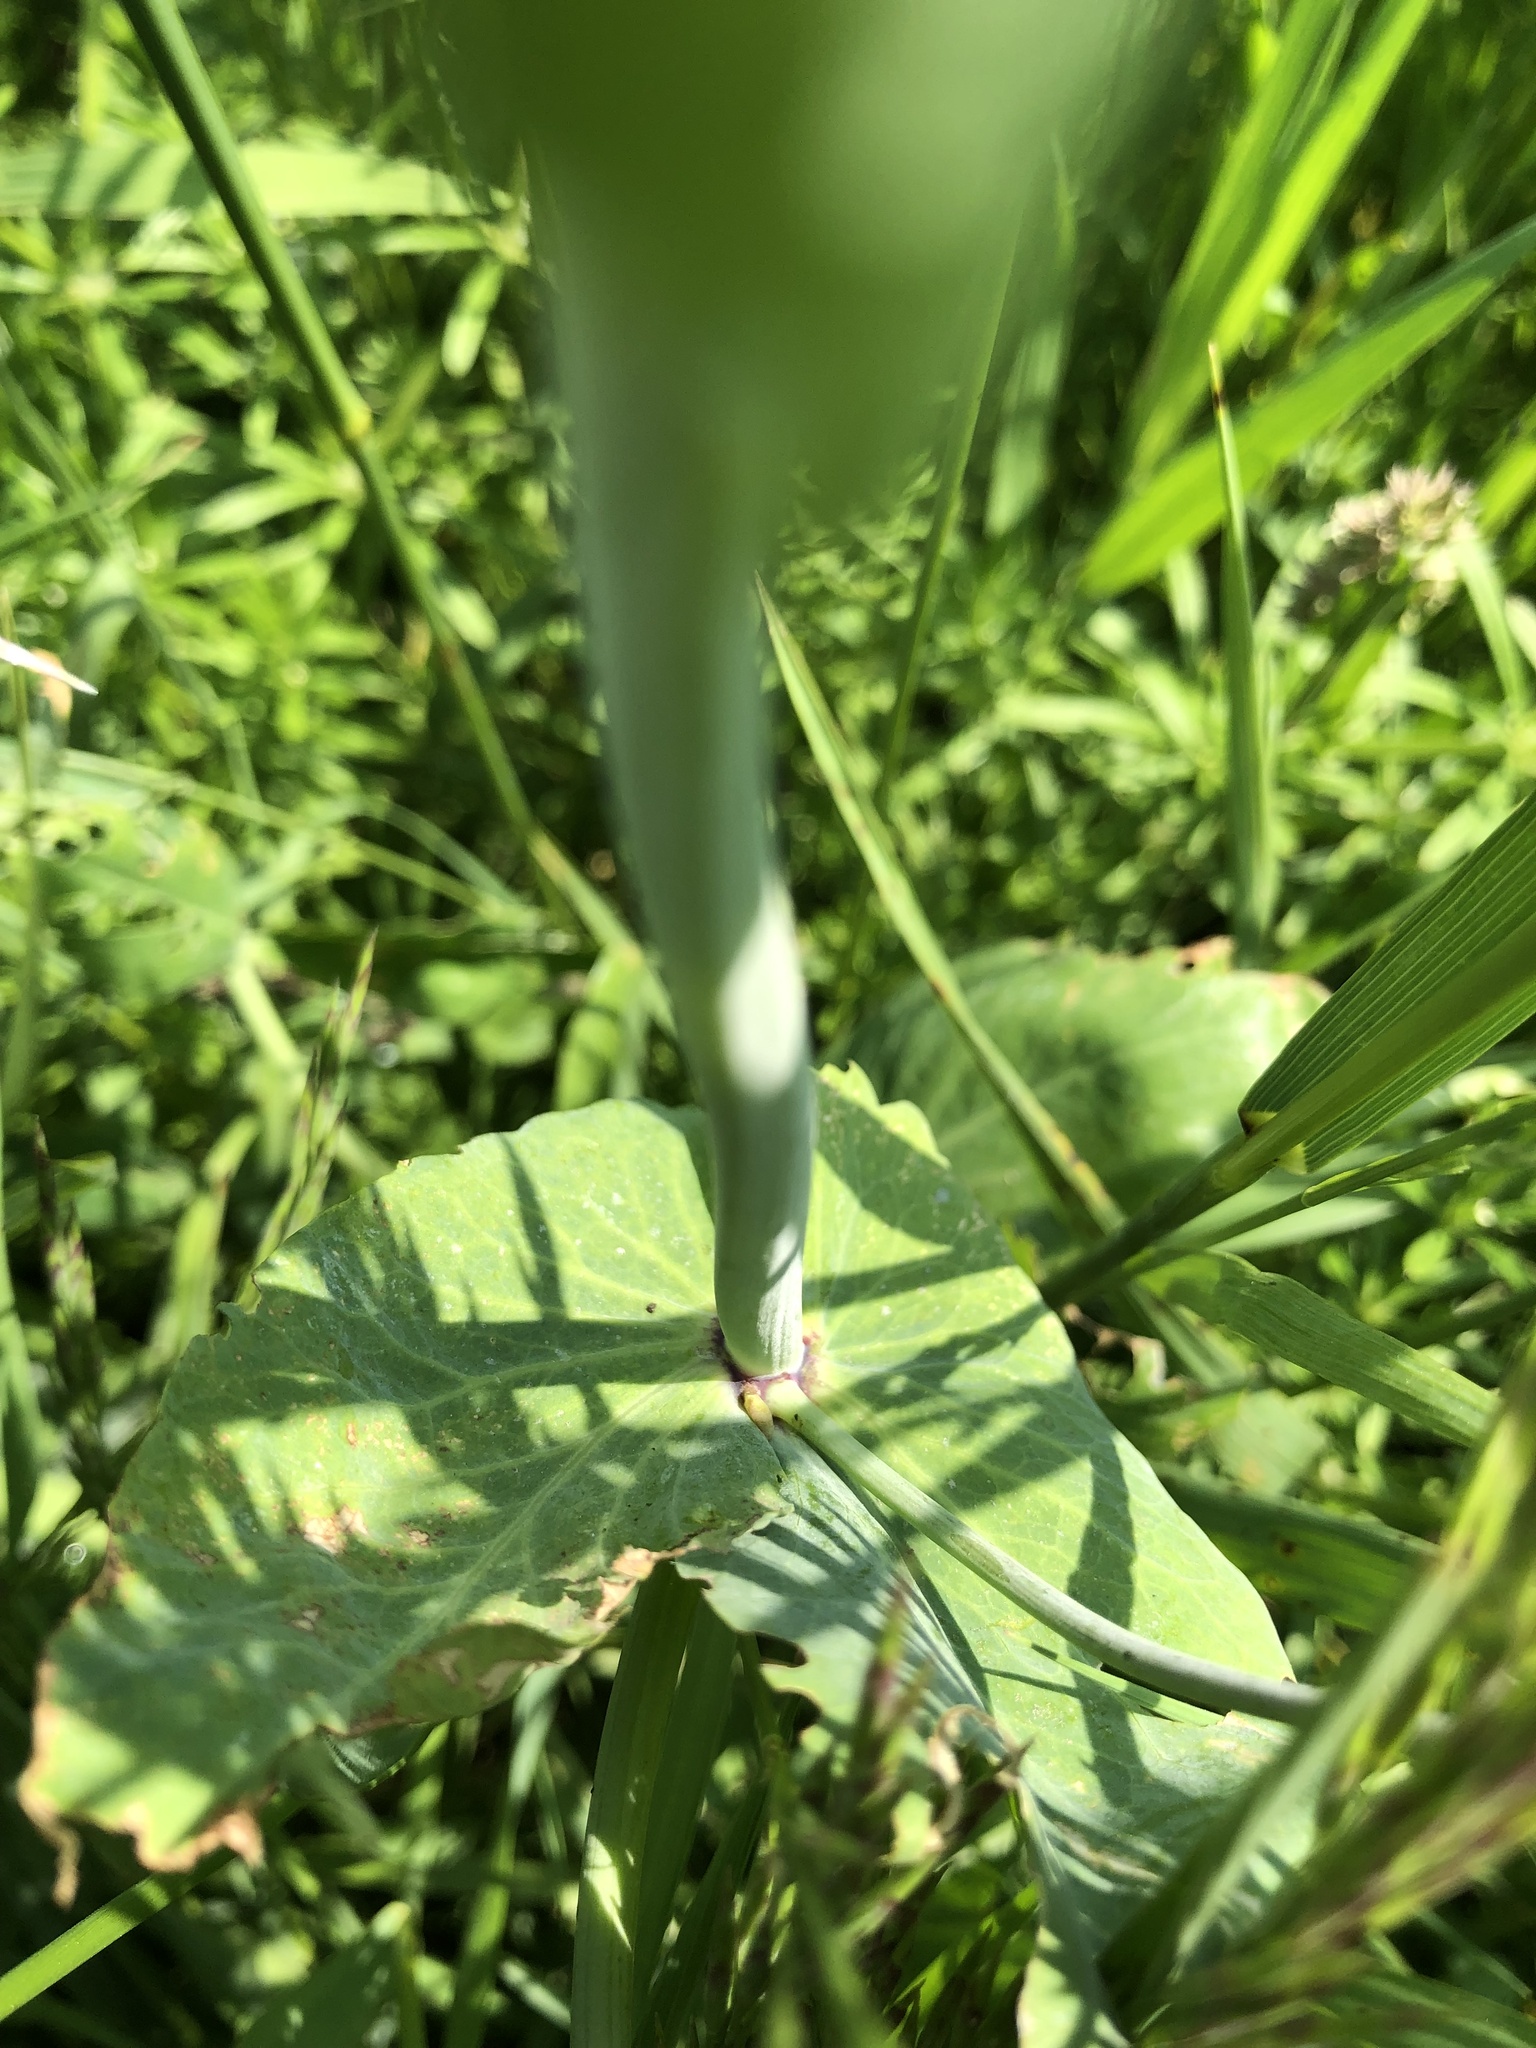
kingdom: Plantae
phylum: Tracheophyta
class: Magnoliopsida
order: Fabales
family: Fabaceae
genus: Lathyrus
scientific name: Lathyrus oleraceus
